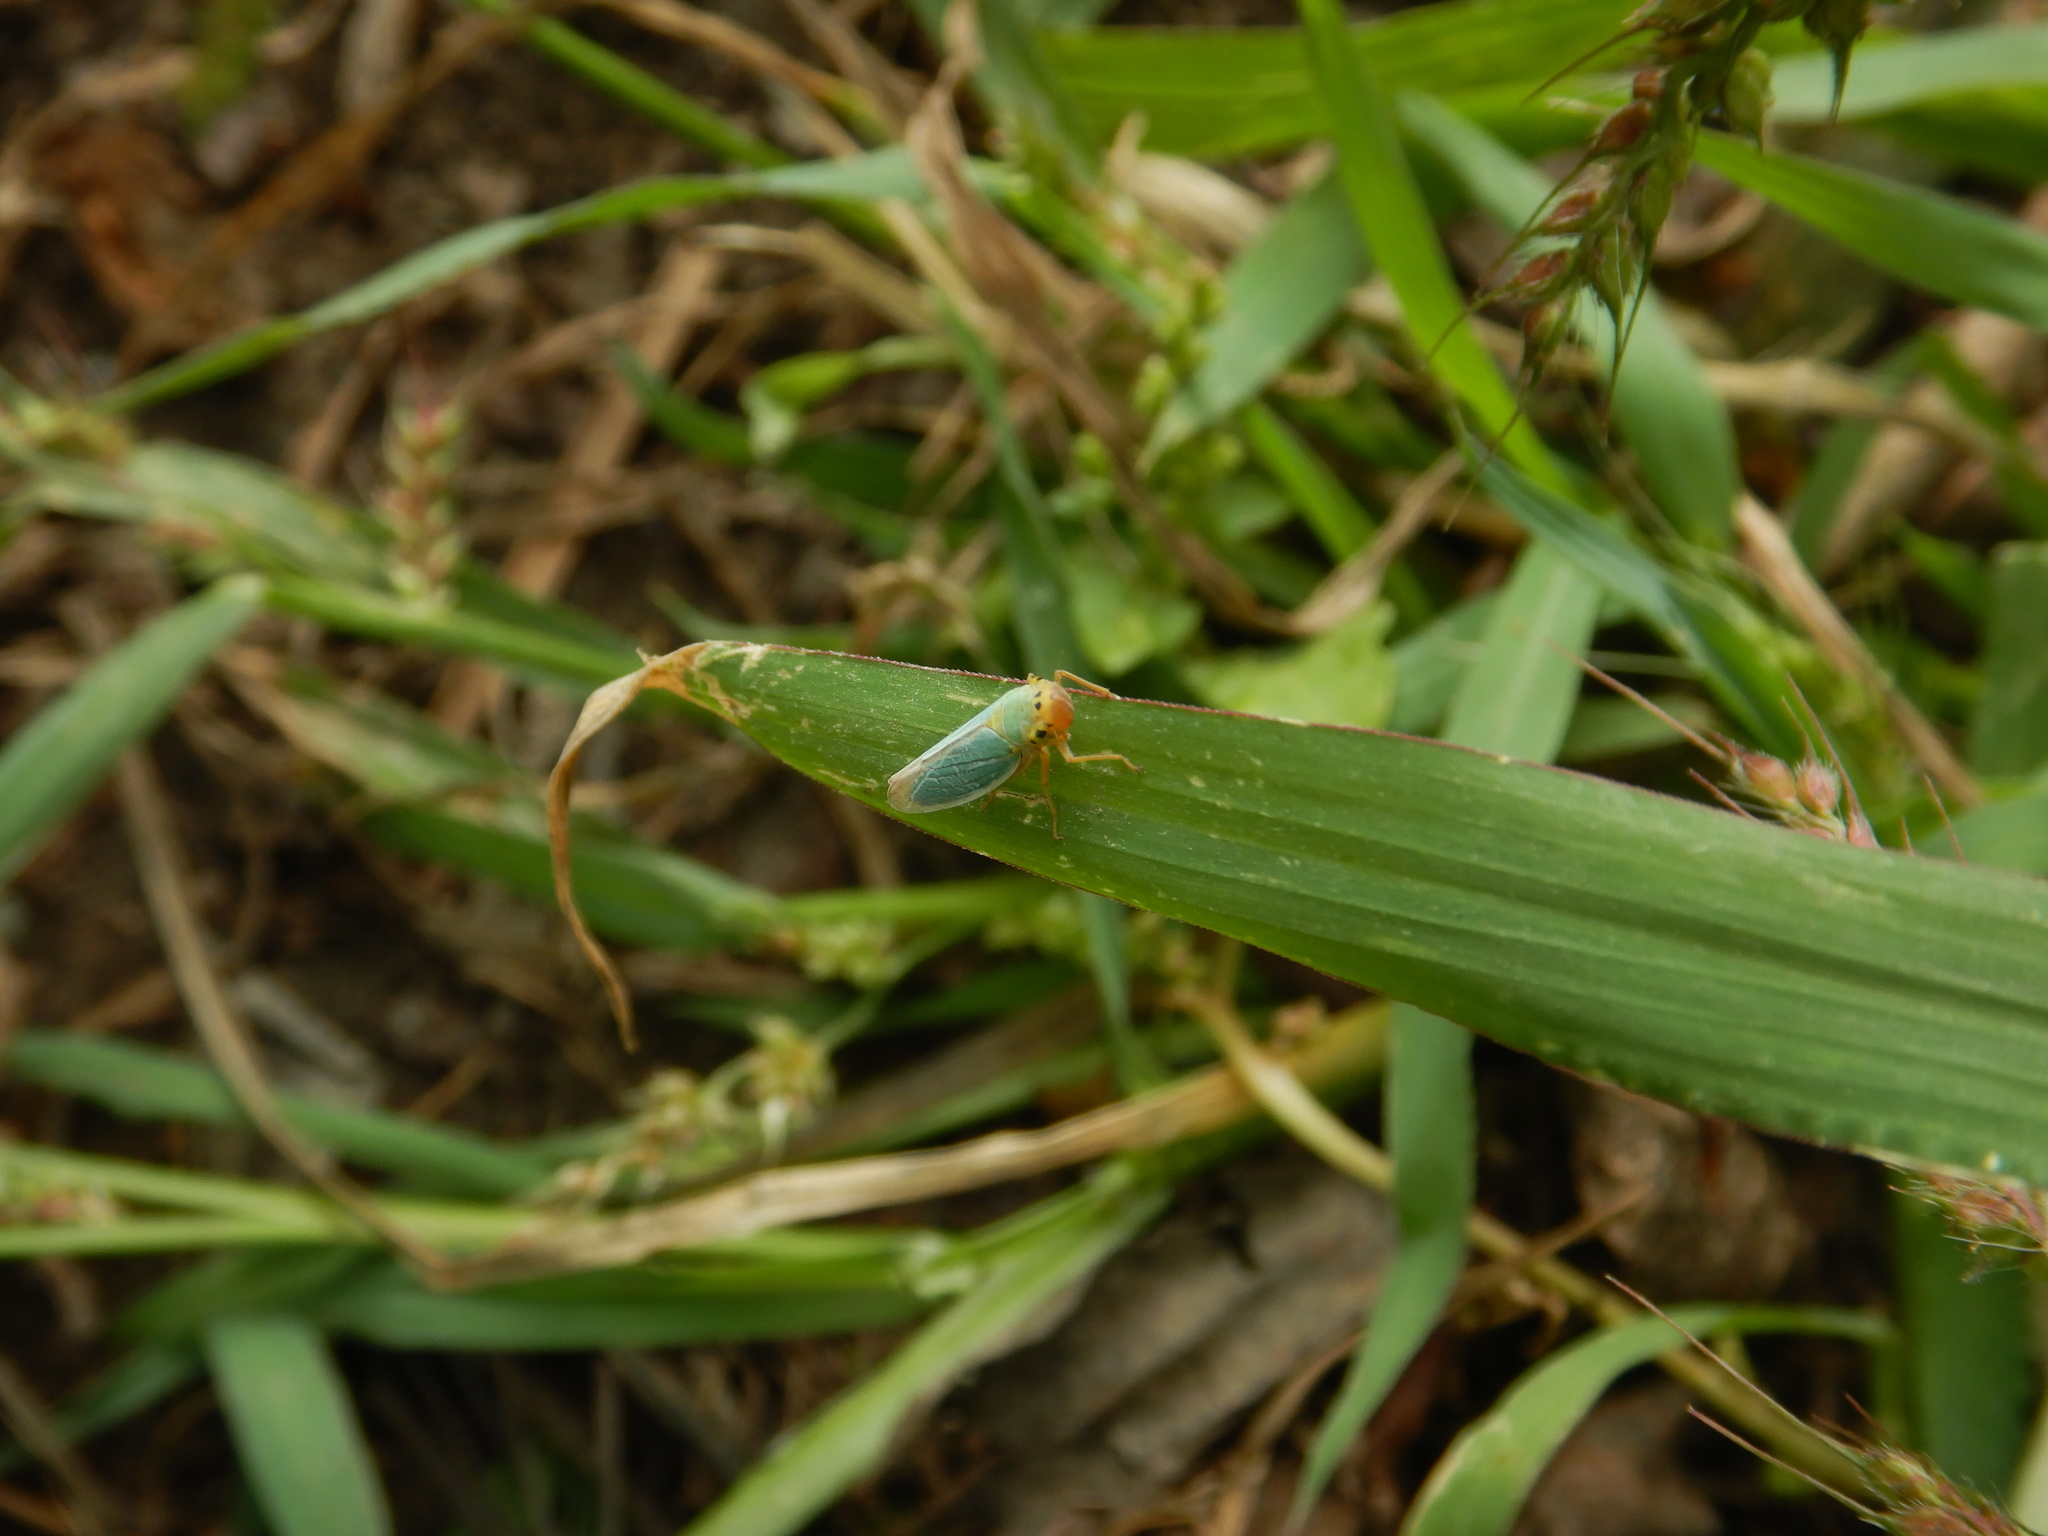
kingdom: Animalia
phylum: Arthropoda
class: Insecta
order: Hemiptera
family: Cicadellidae
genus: Cicadella
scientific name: Cicadella viridis
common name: Leafhopper
